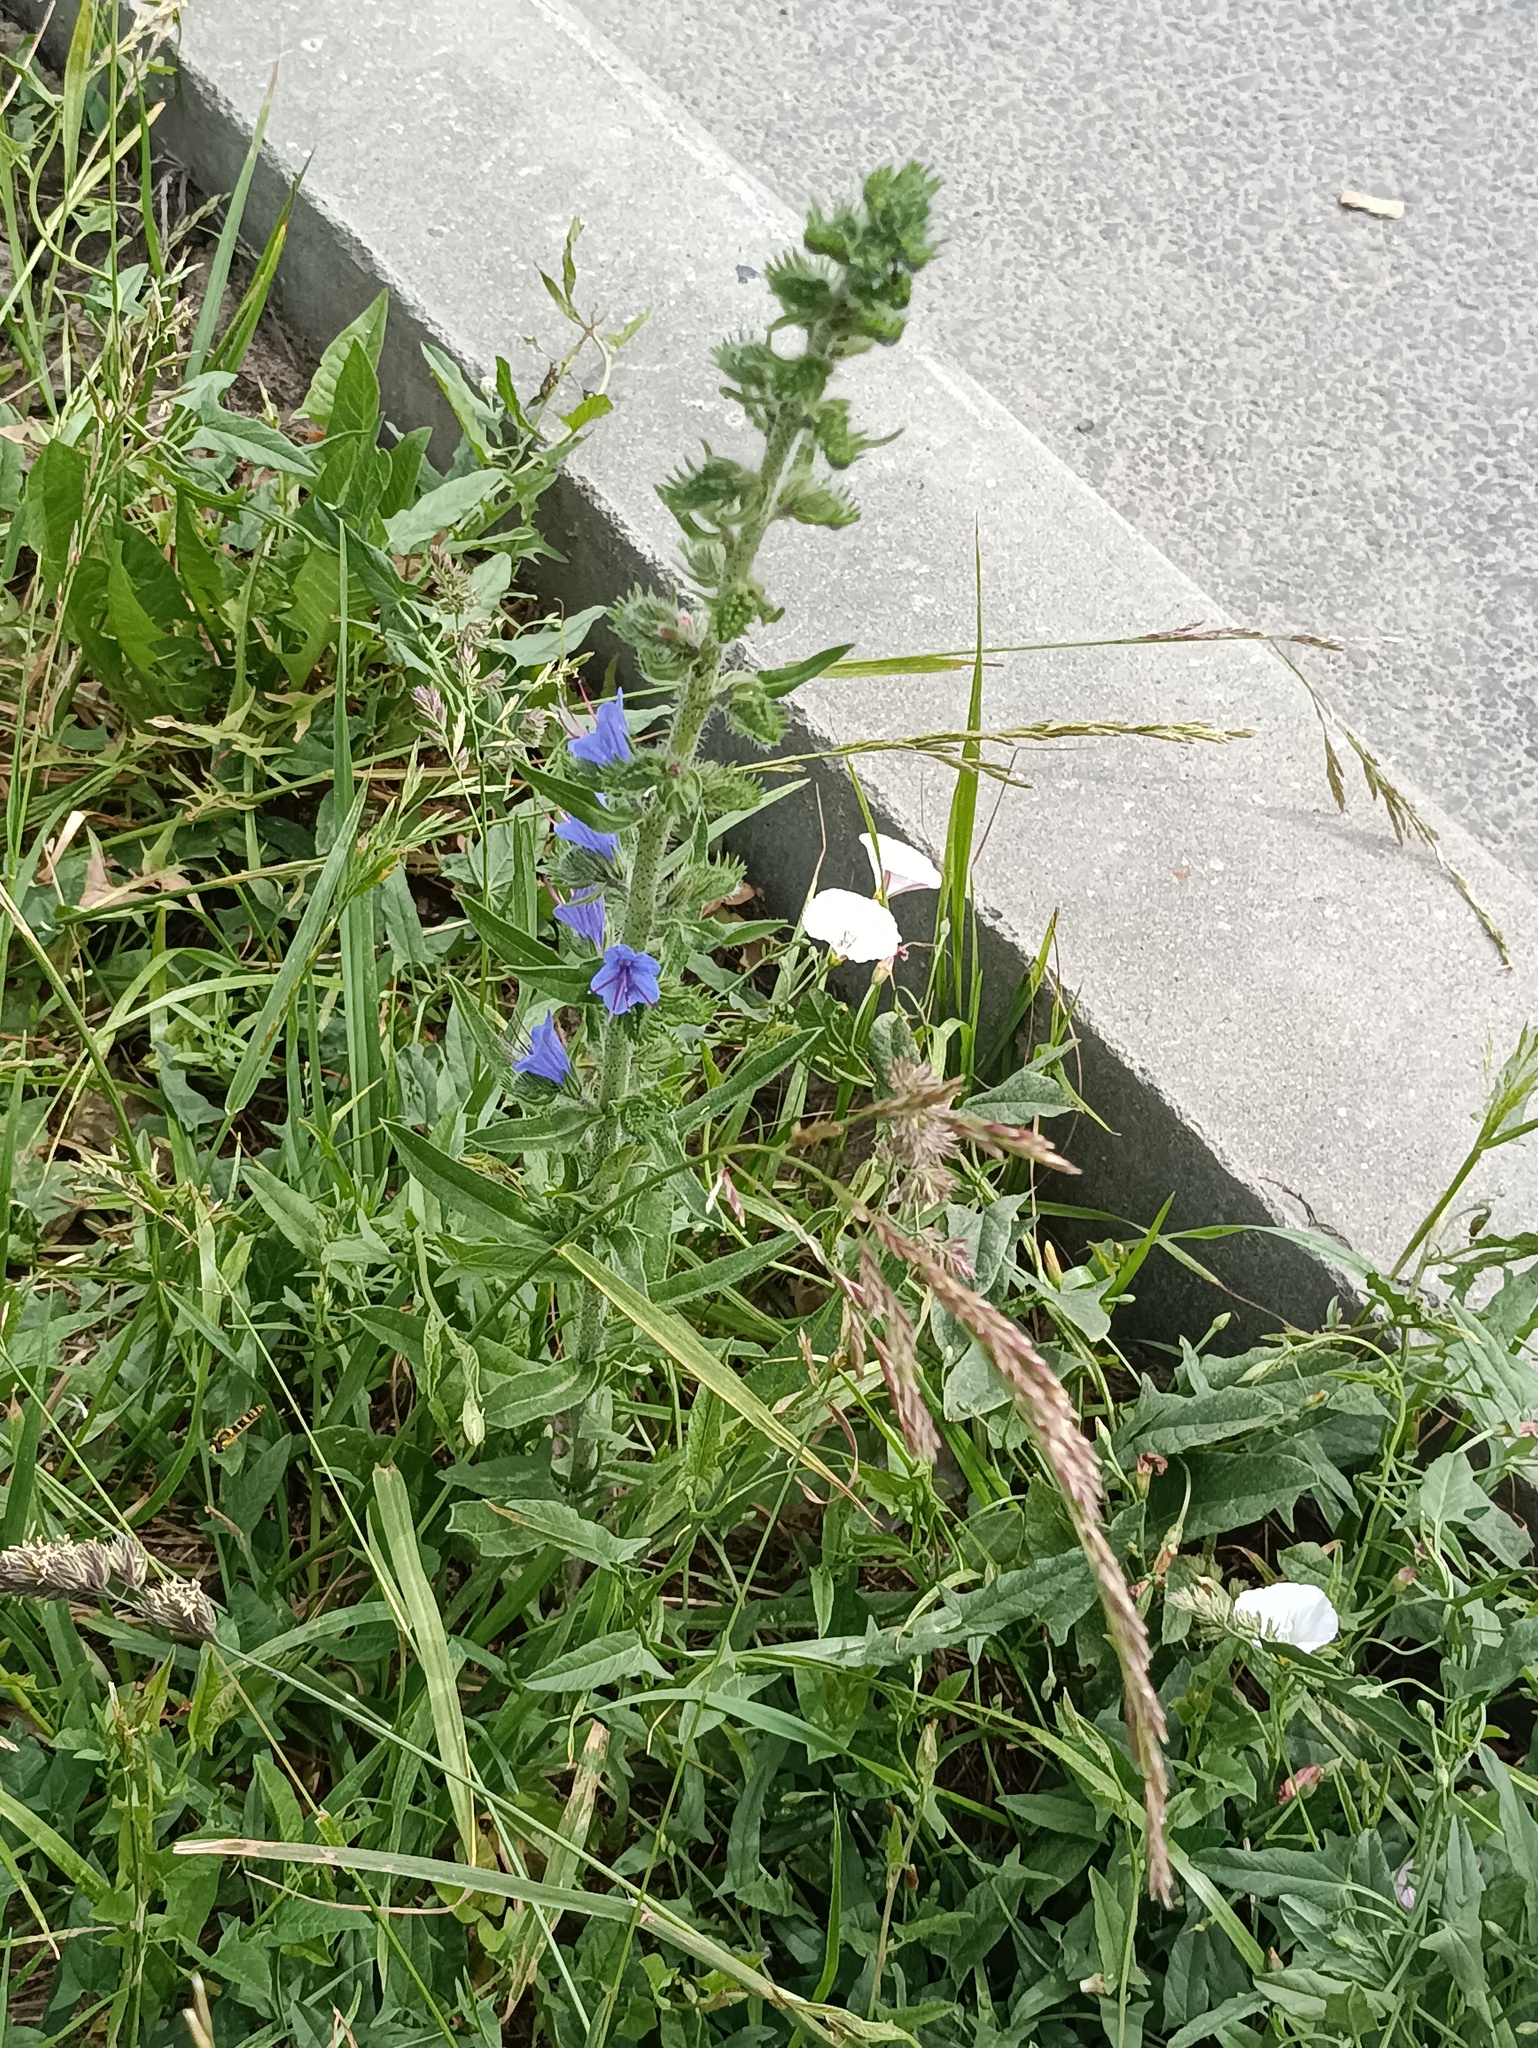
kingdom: Plantae
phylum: Tracheophyta
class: Magnoliopsida
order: Boraginales
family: Boraginaceae
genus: Echium
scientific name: Echium vulgare
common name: Common viper's bugloss
